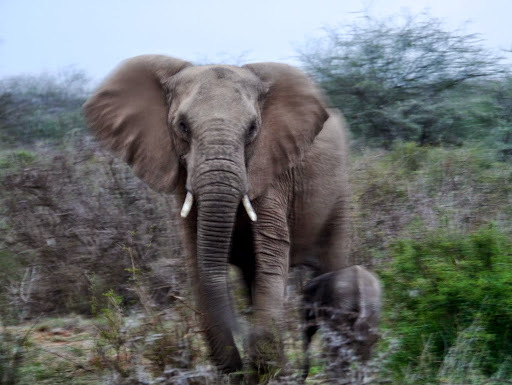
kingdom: Animalia
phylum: Chordata
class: Mammalia
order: Proboscidea
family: Elephantidae
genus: Loxodonta
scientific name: Loxodonta africana
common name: African elephant
